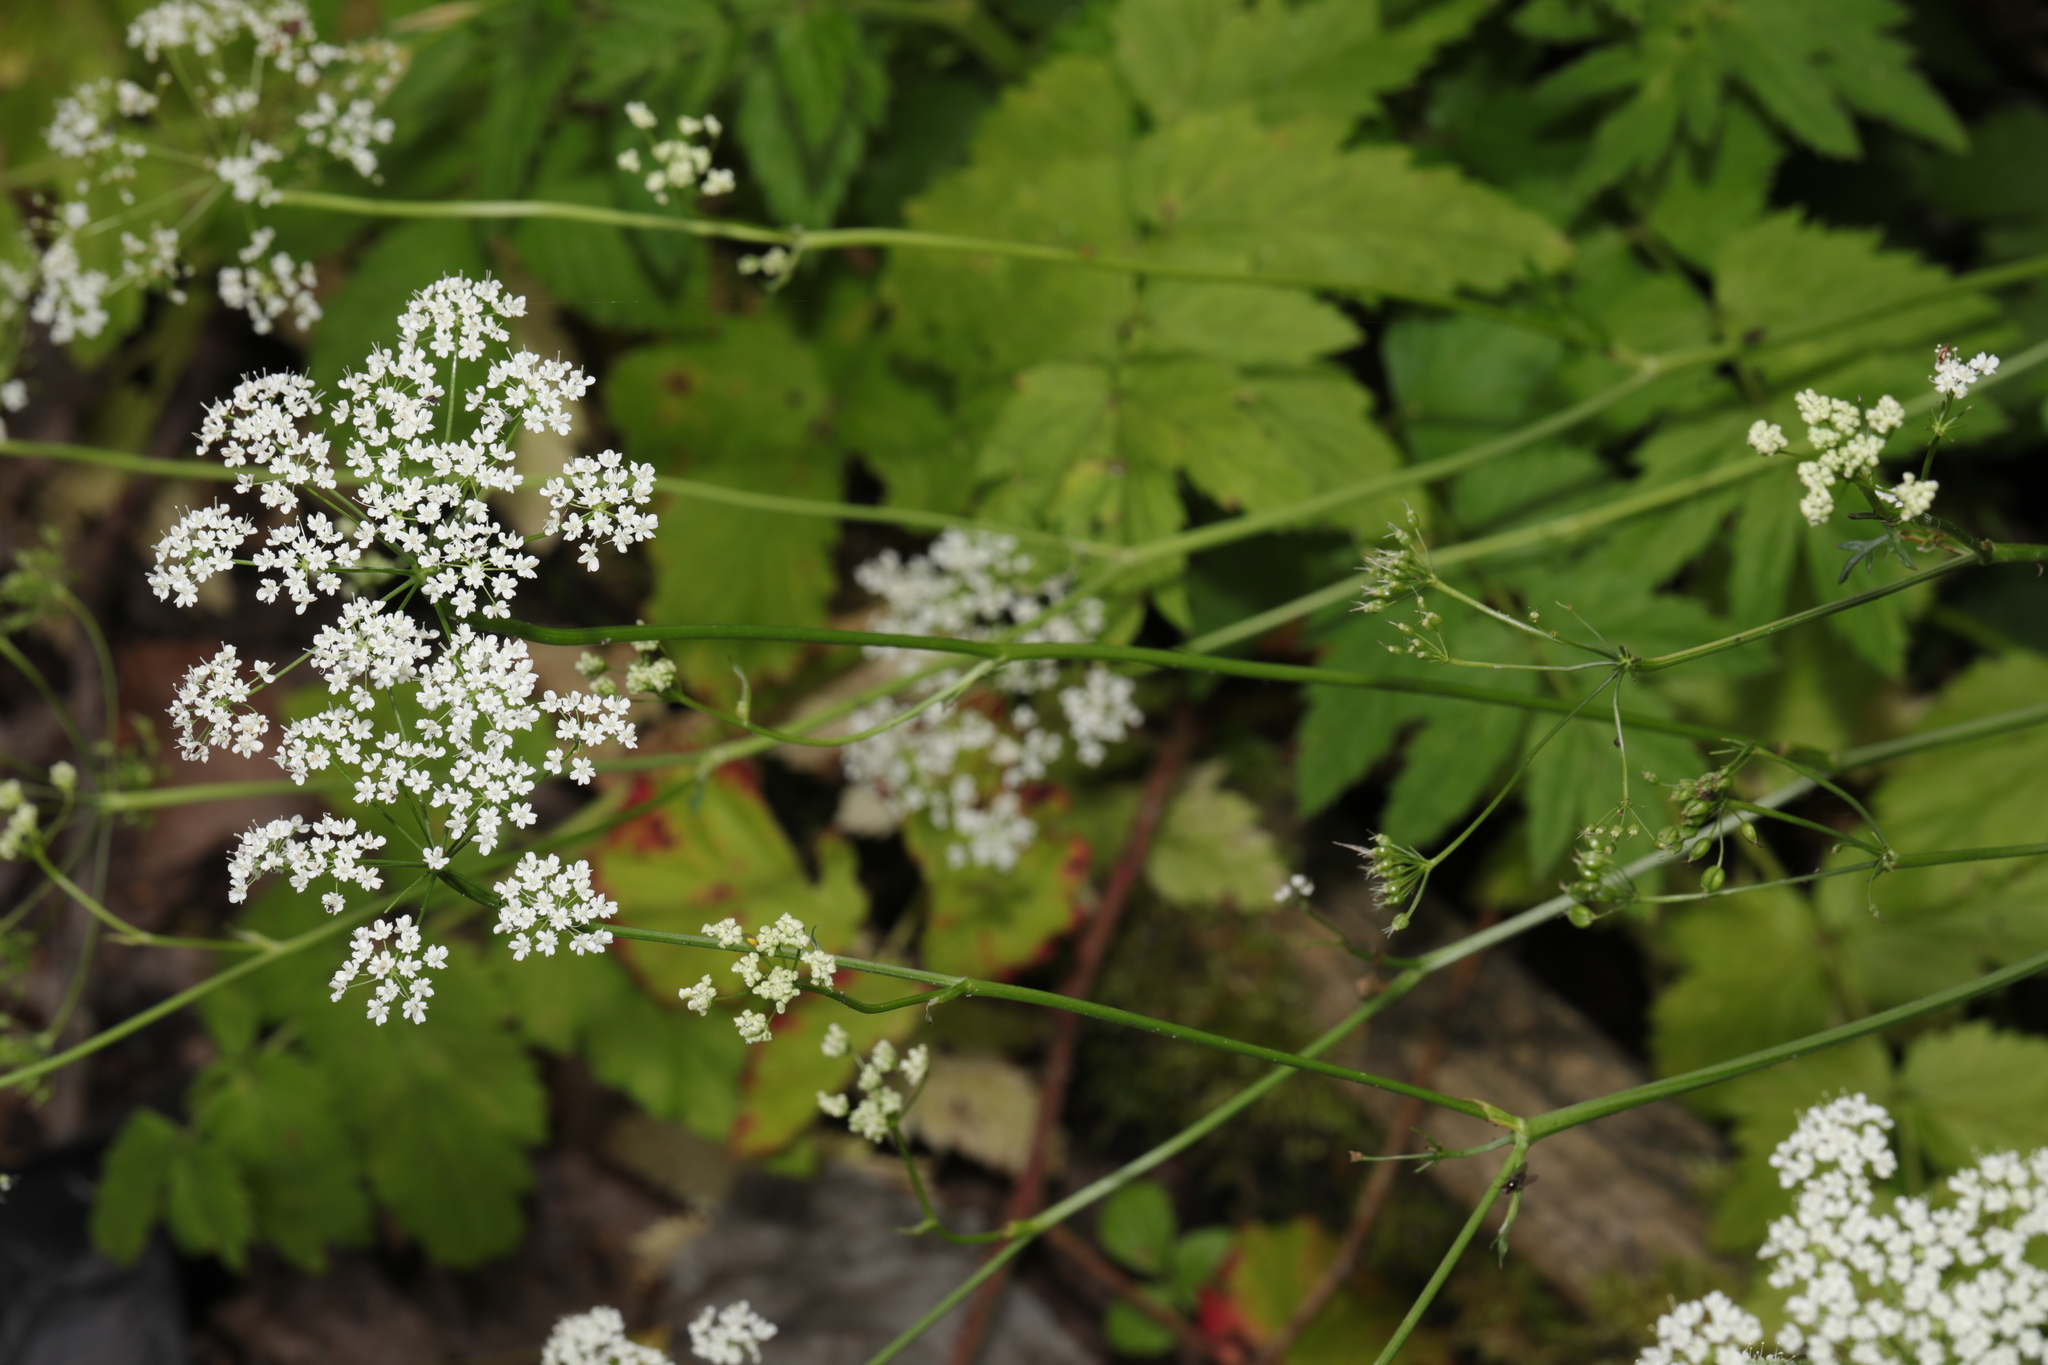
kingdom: Plantae
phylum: Tracheophyta
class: Magnoliopsida
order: Apiales
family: Apiaceae
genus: Aegopodium
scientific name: Aegopodium podagraria
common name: Ground-elder
